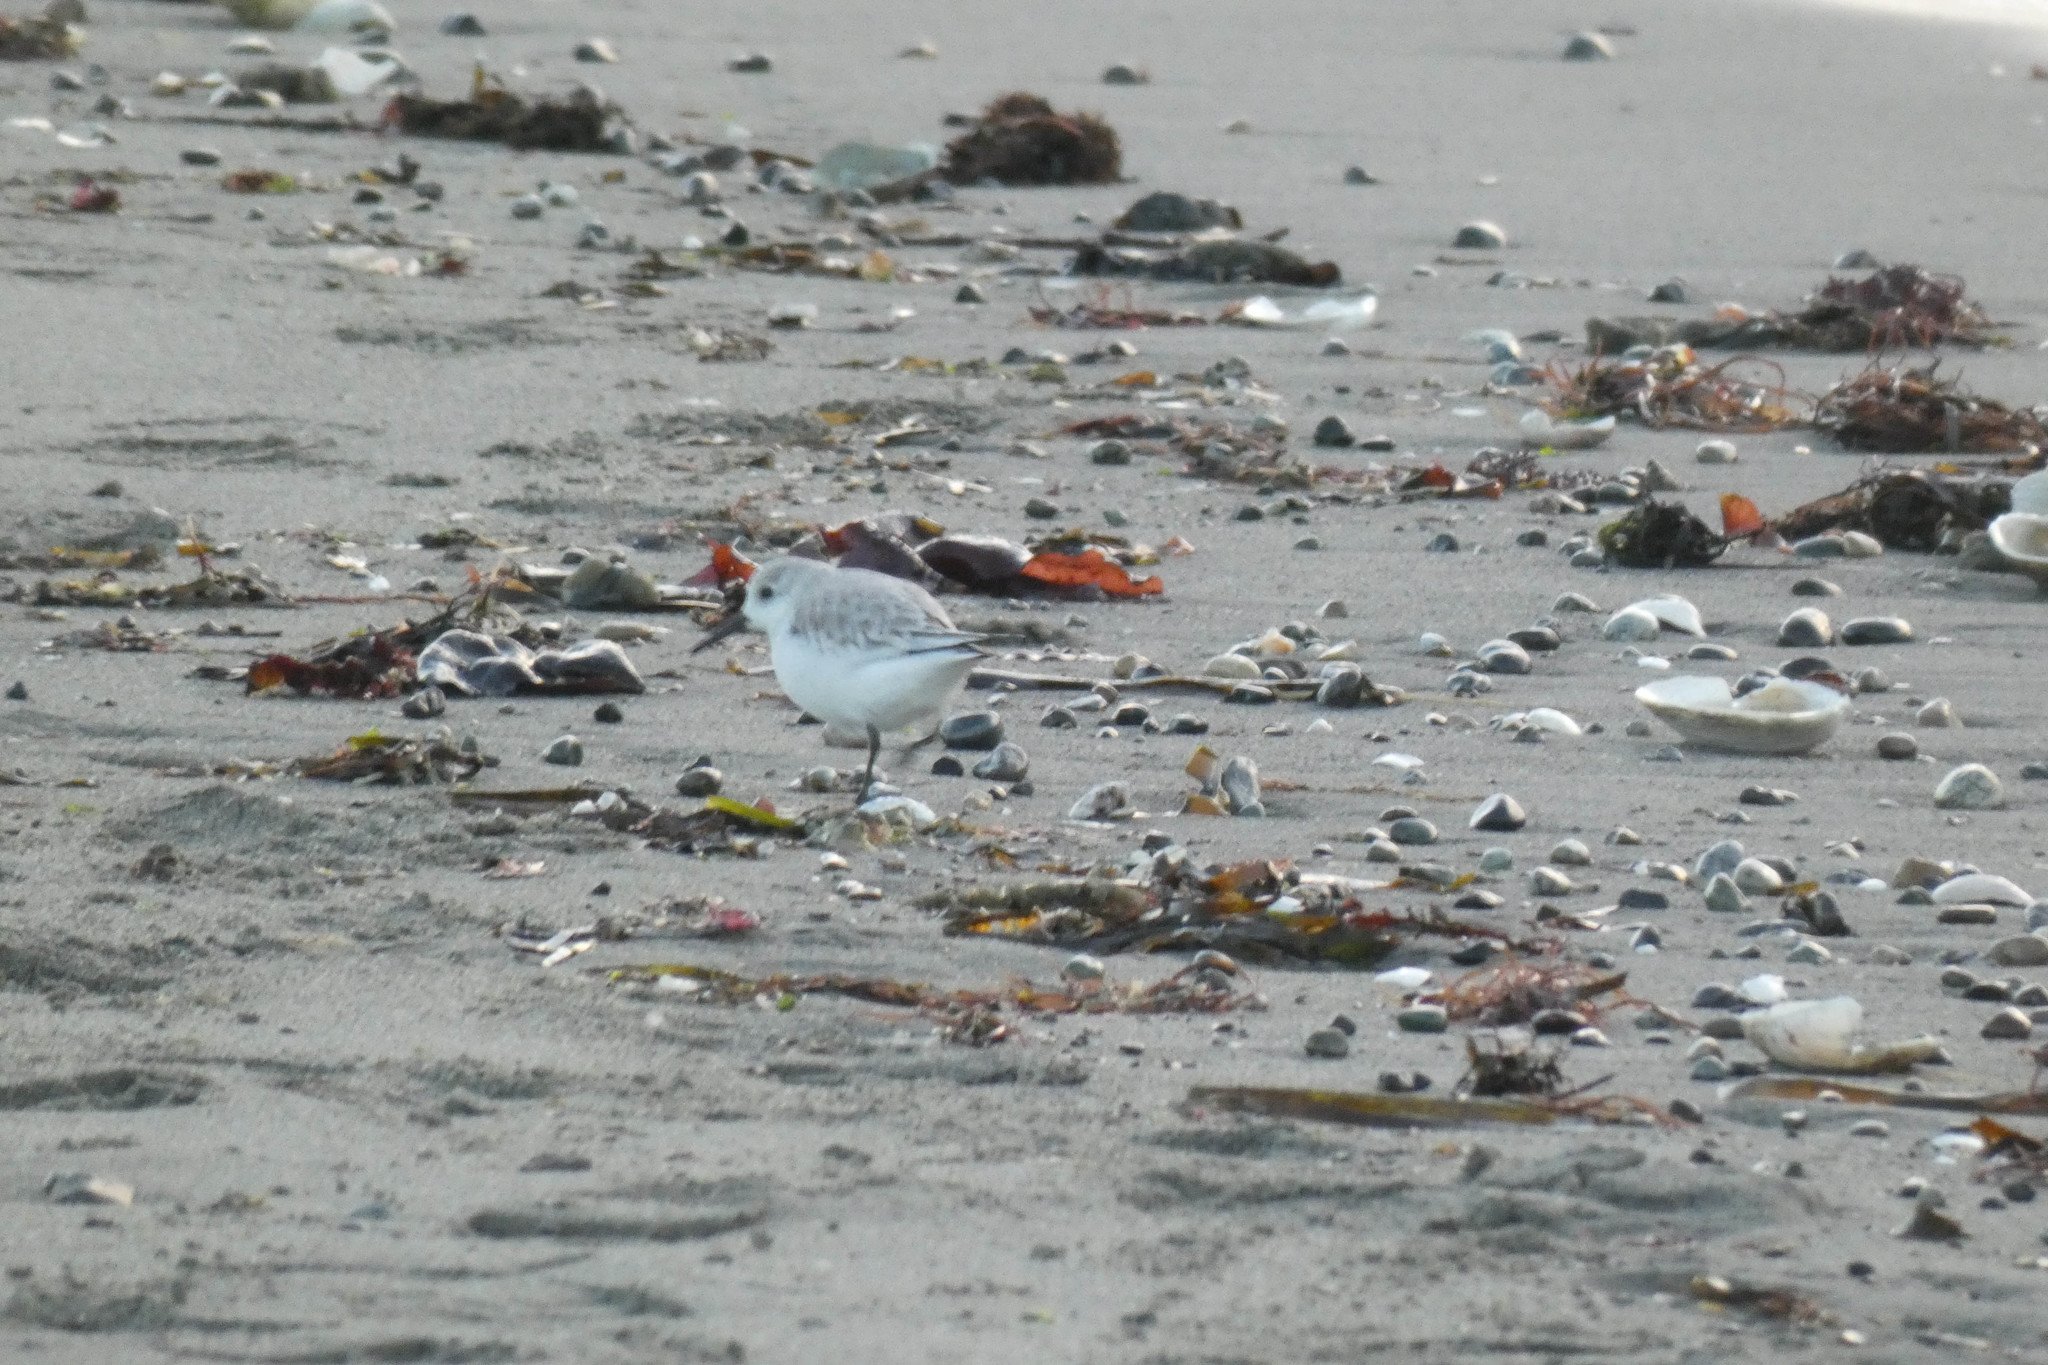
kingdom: Animalia
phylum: Chordata
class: Aves
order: Charadriiformes
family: Scolopacidae
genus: Calidris
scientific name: Calidris alba
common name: Sanderling
